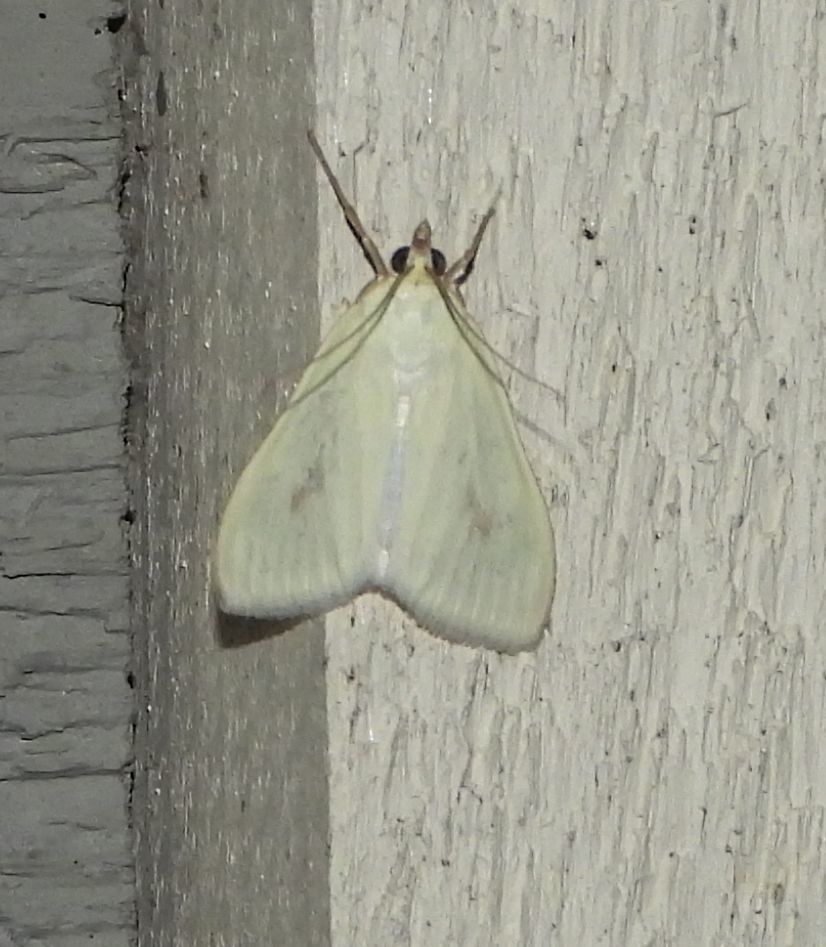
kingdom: Animalia
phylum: Arthropoda
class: Insecta
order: Lepidoptera
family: Crambidae
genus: Sitochroa
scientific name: Sitochroa palealis
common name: Greenish-yellow sitochroa moth
